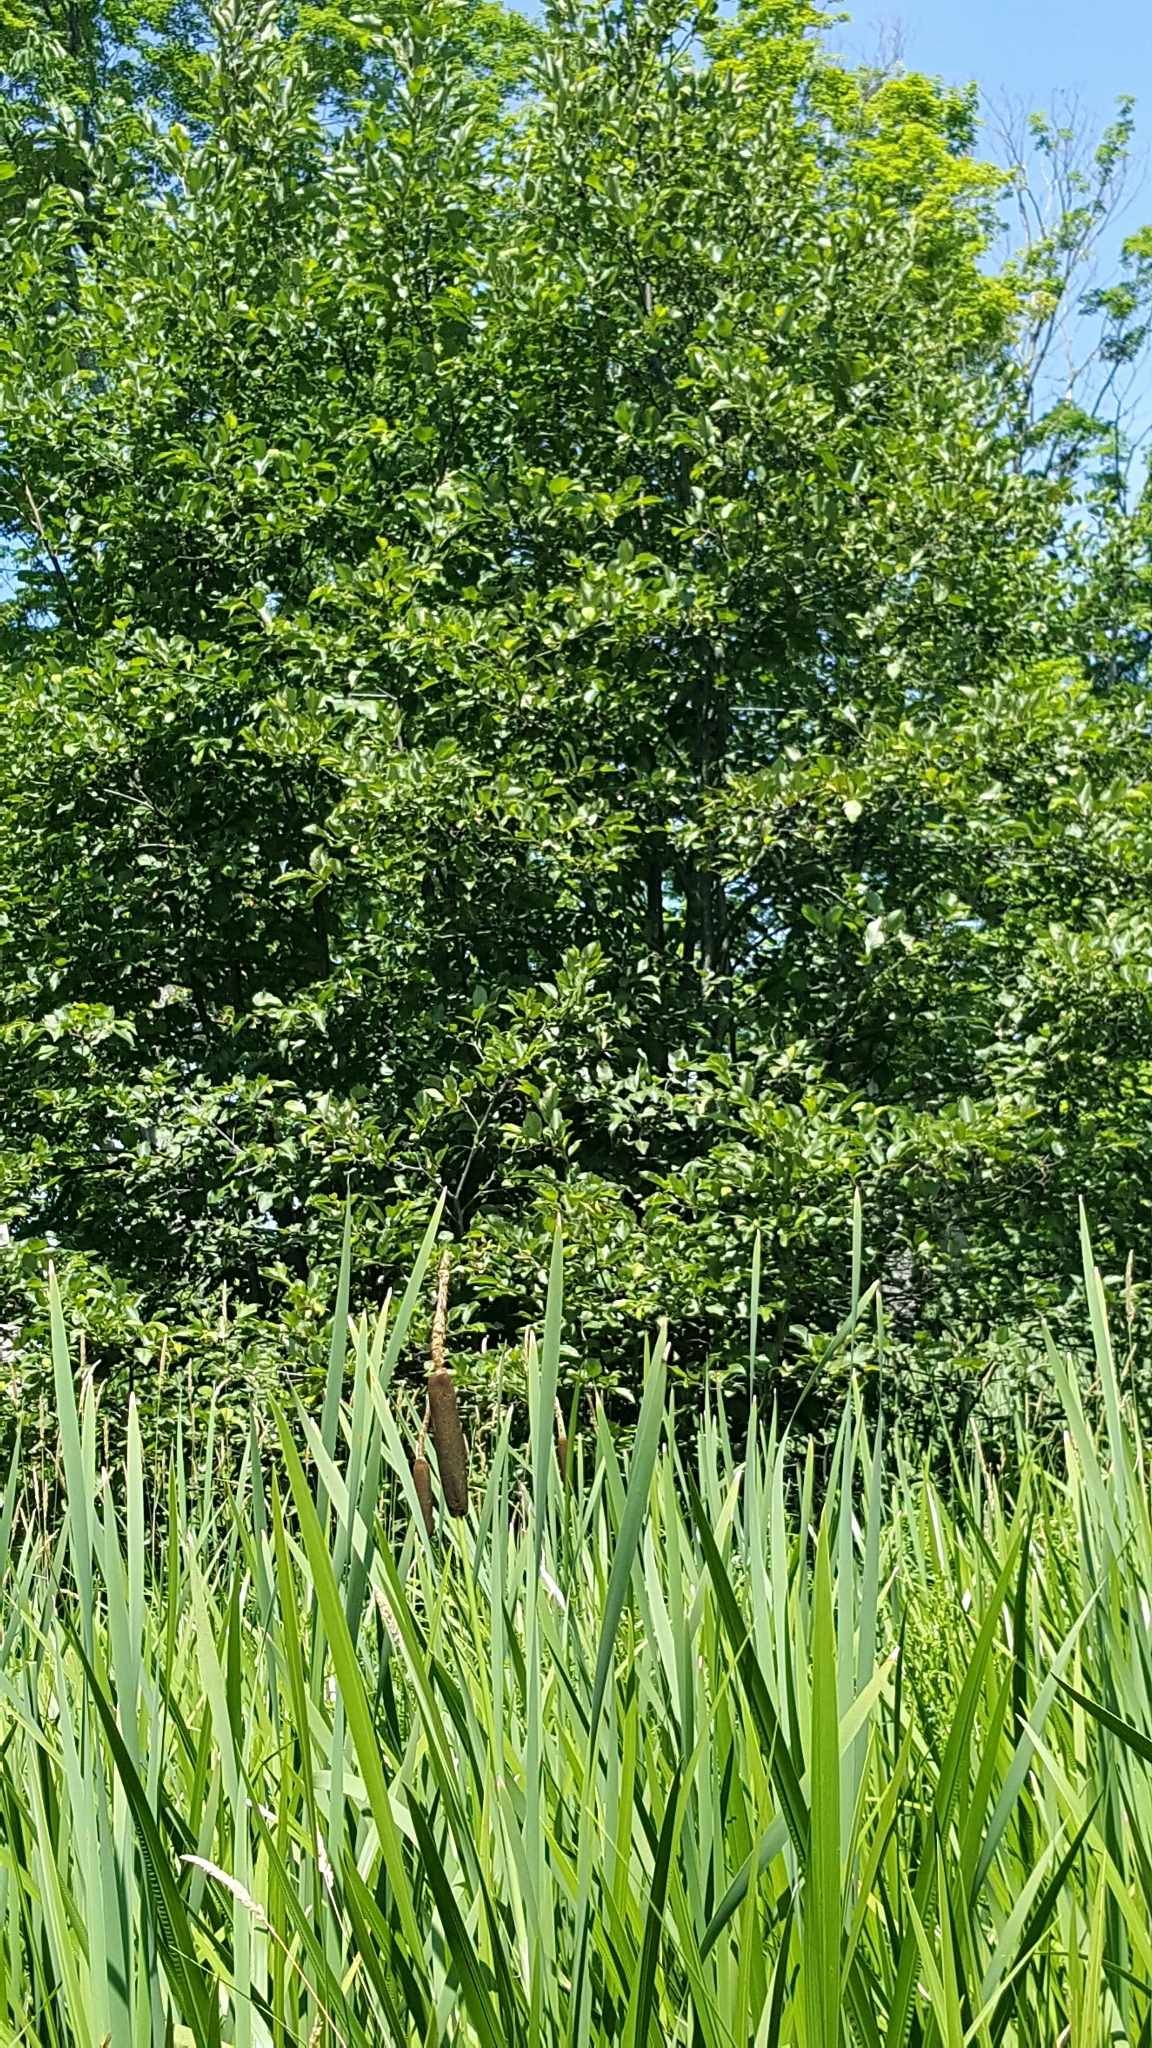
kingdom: Plantae
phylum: Tracheophyta
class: Magnoliopsida
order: Fagales
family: Betulaceae
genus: Alnus
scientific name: Alnus incana
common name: Grey alder
